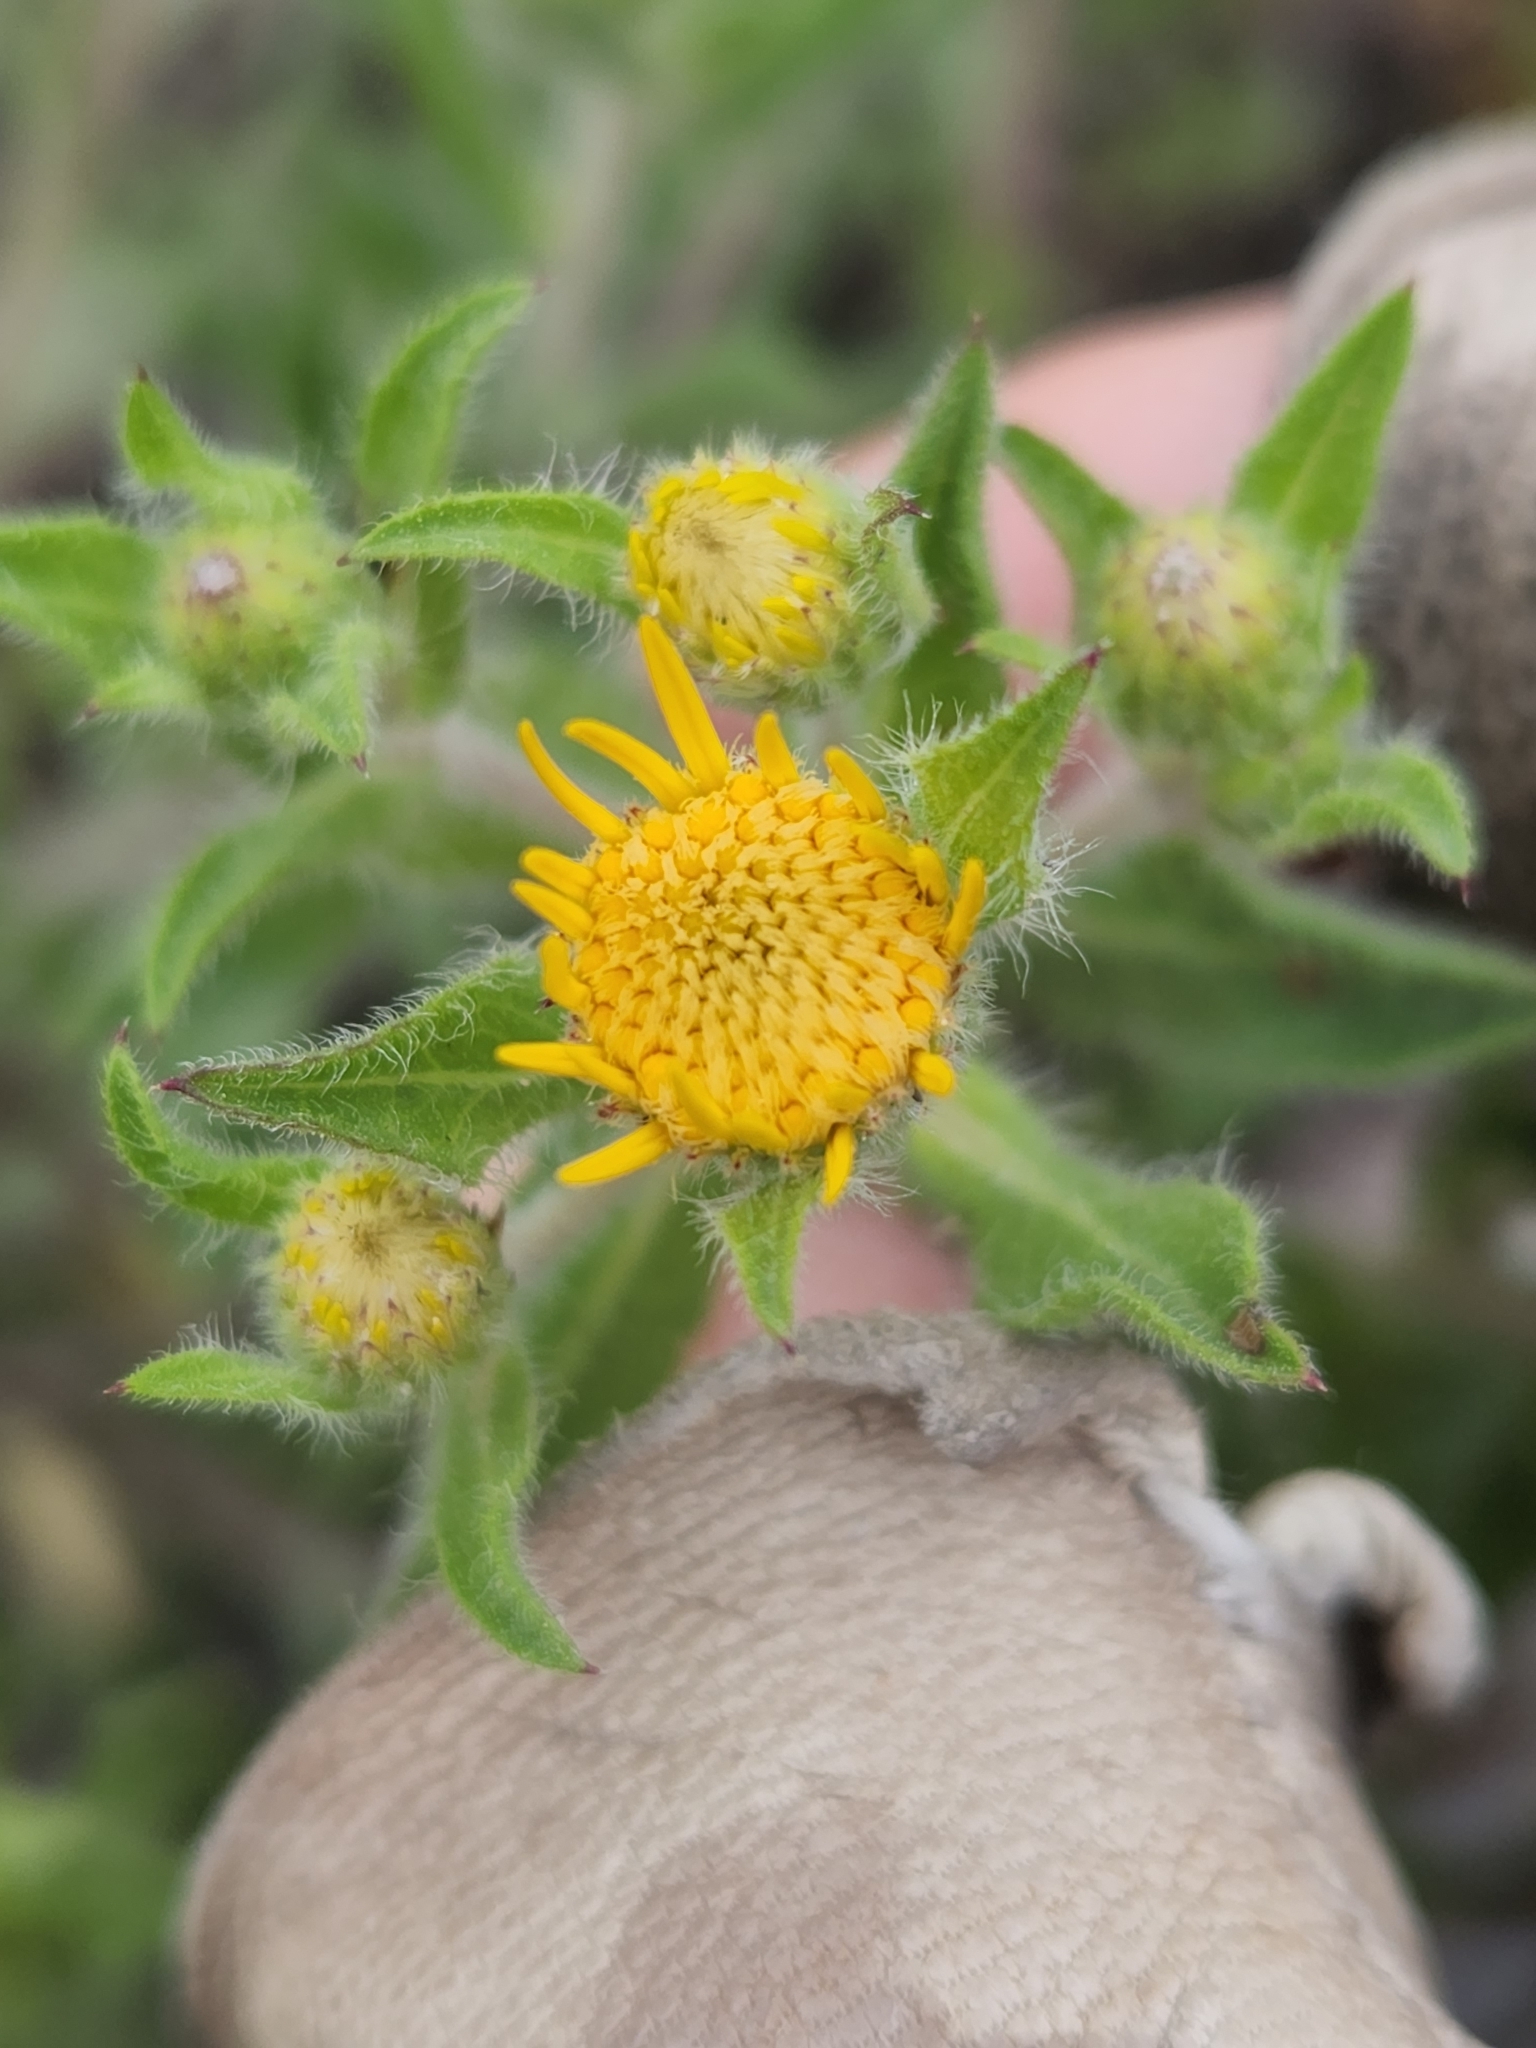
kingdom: Plantae
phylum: Tracheophyta
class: Magnoliopsida
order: Asterales
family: Asteraceae
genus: Heterotheca
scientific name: Heterotheca villosa
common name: Hairy false goldenaster
